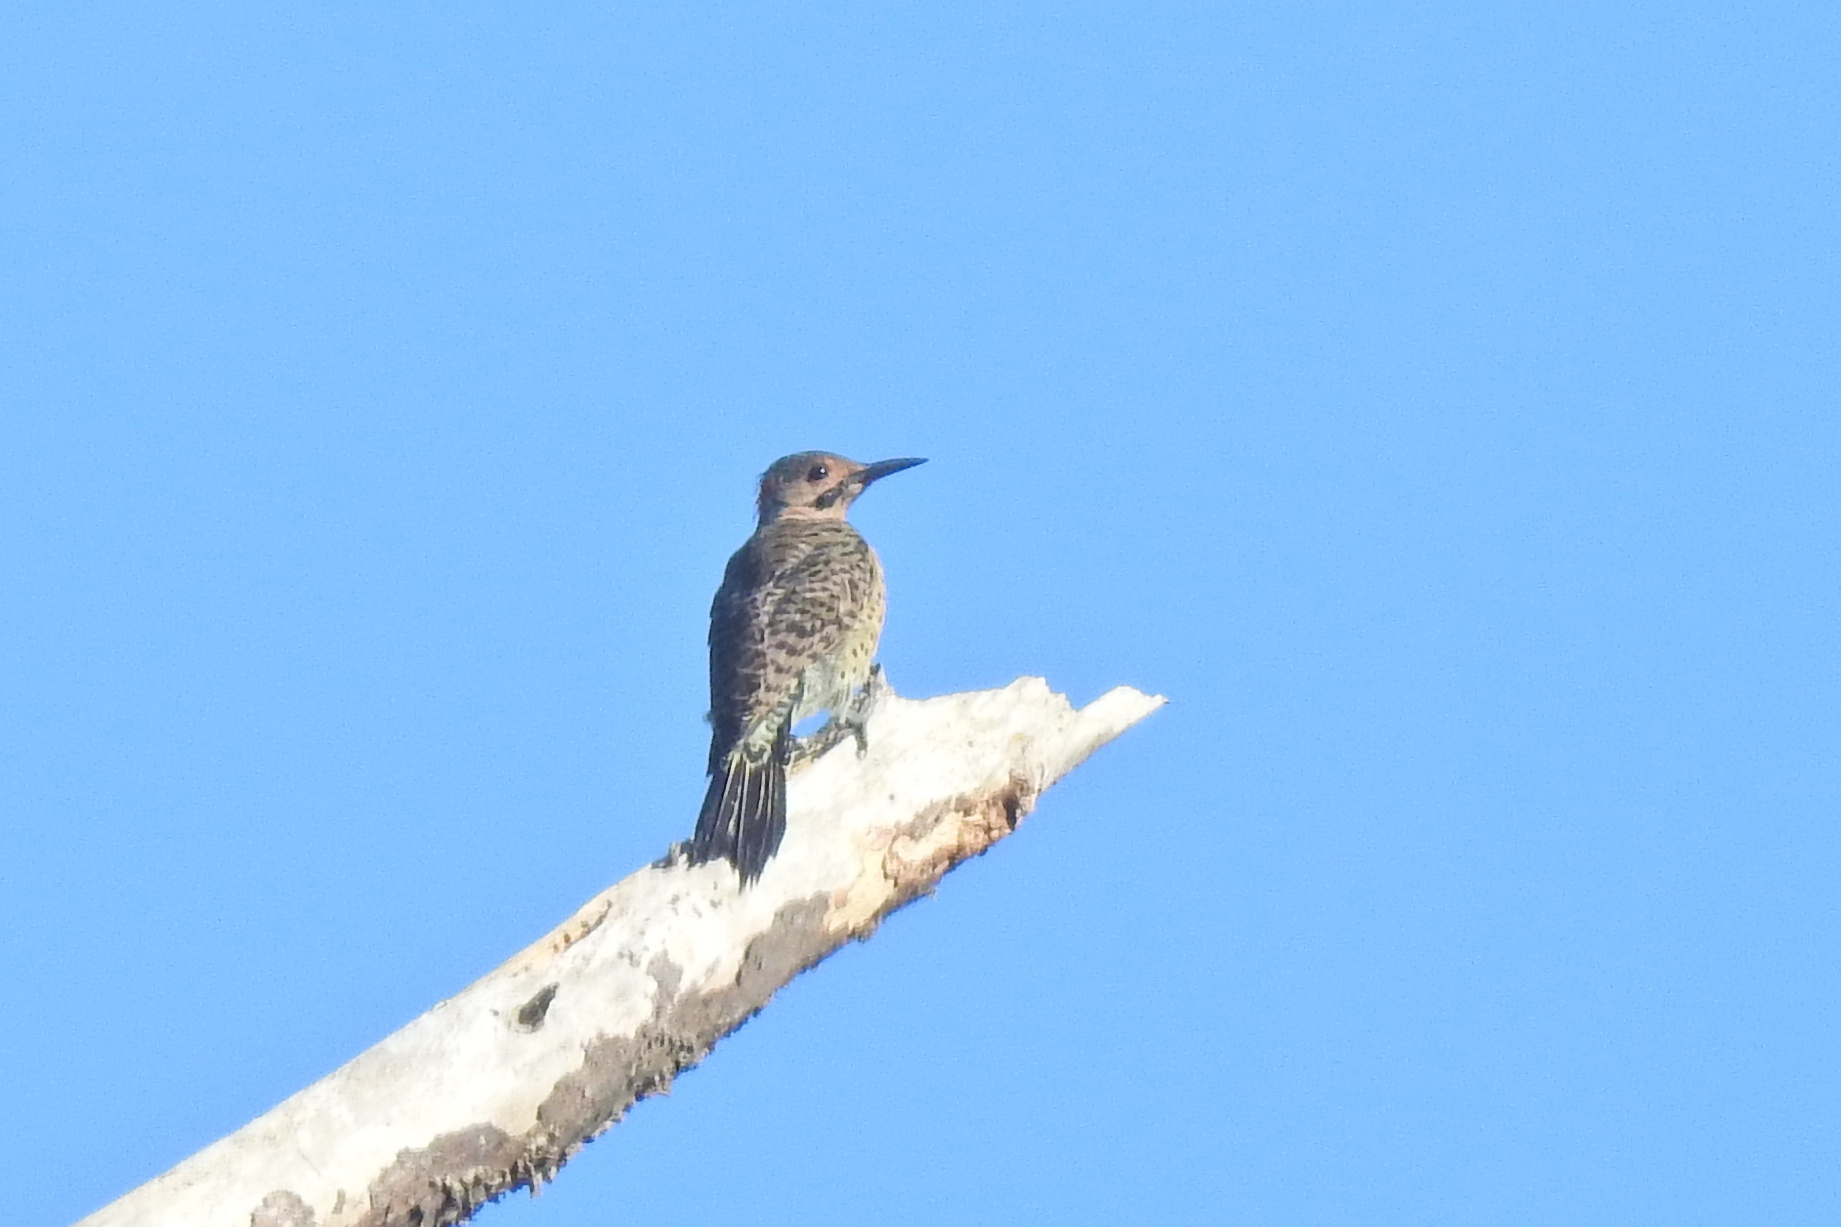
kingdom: Animalia
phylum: Chordata
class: Aves
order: Piciformes
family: Picidae
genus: Colaptes
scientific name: Colaptes auratus
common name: Northern flicker
